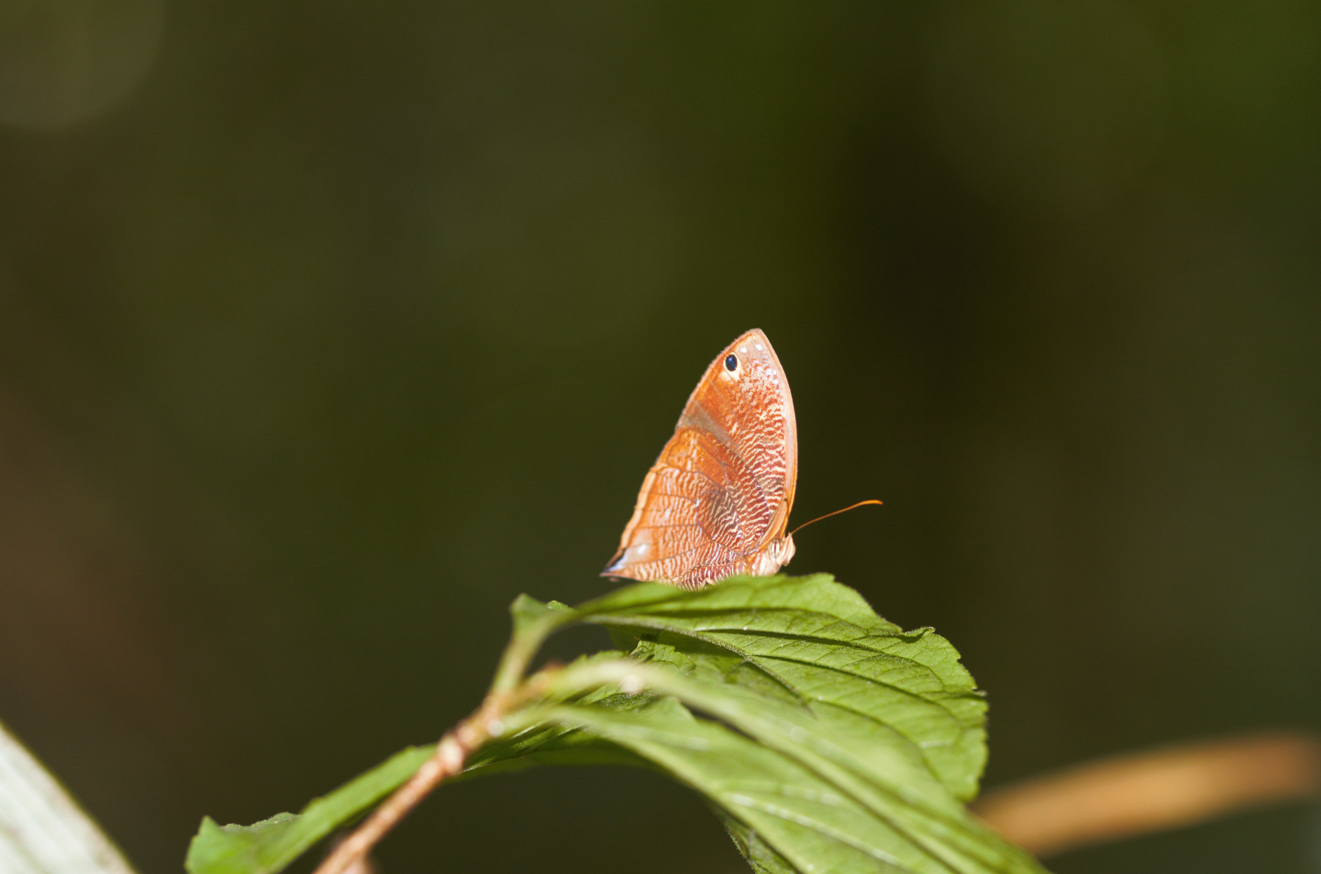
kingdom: Animalia
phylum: Arthropoda
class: Insecta
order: Lepidoptera
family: Nymphalidae
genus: Bia
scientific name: Bia decaerulea
